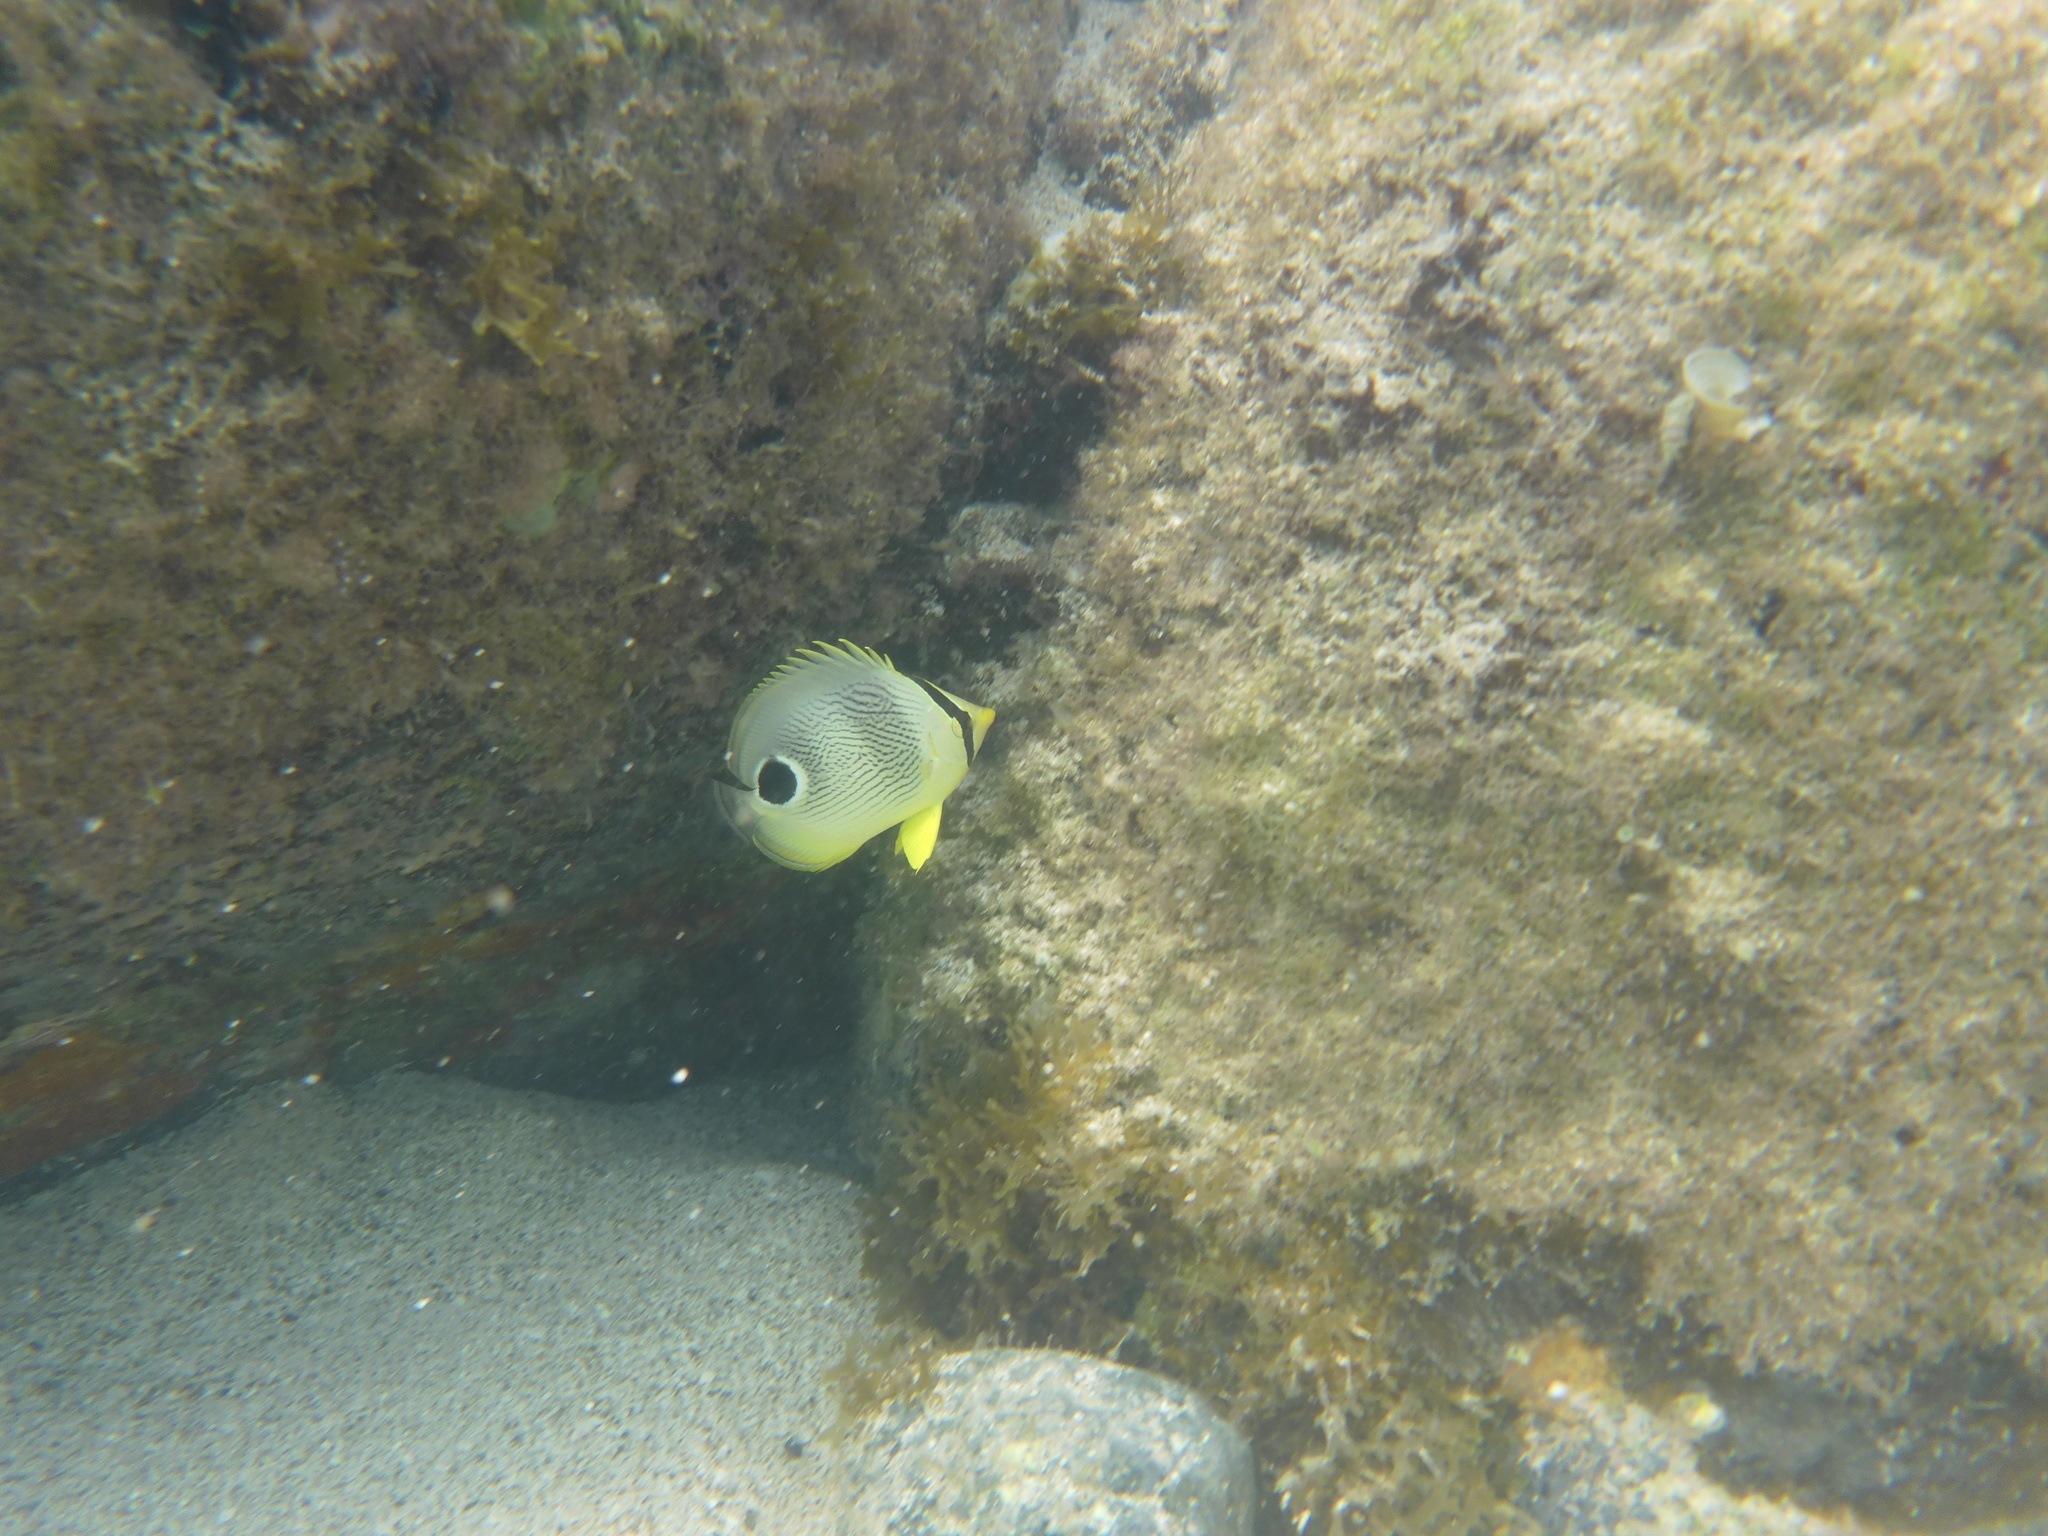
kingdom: Animalia
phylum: Chordata
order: Perciformes
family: Chaetodontidae
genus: Chaetodon
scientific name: Chaetodon capistratus
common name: Kete
